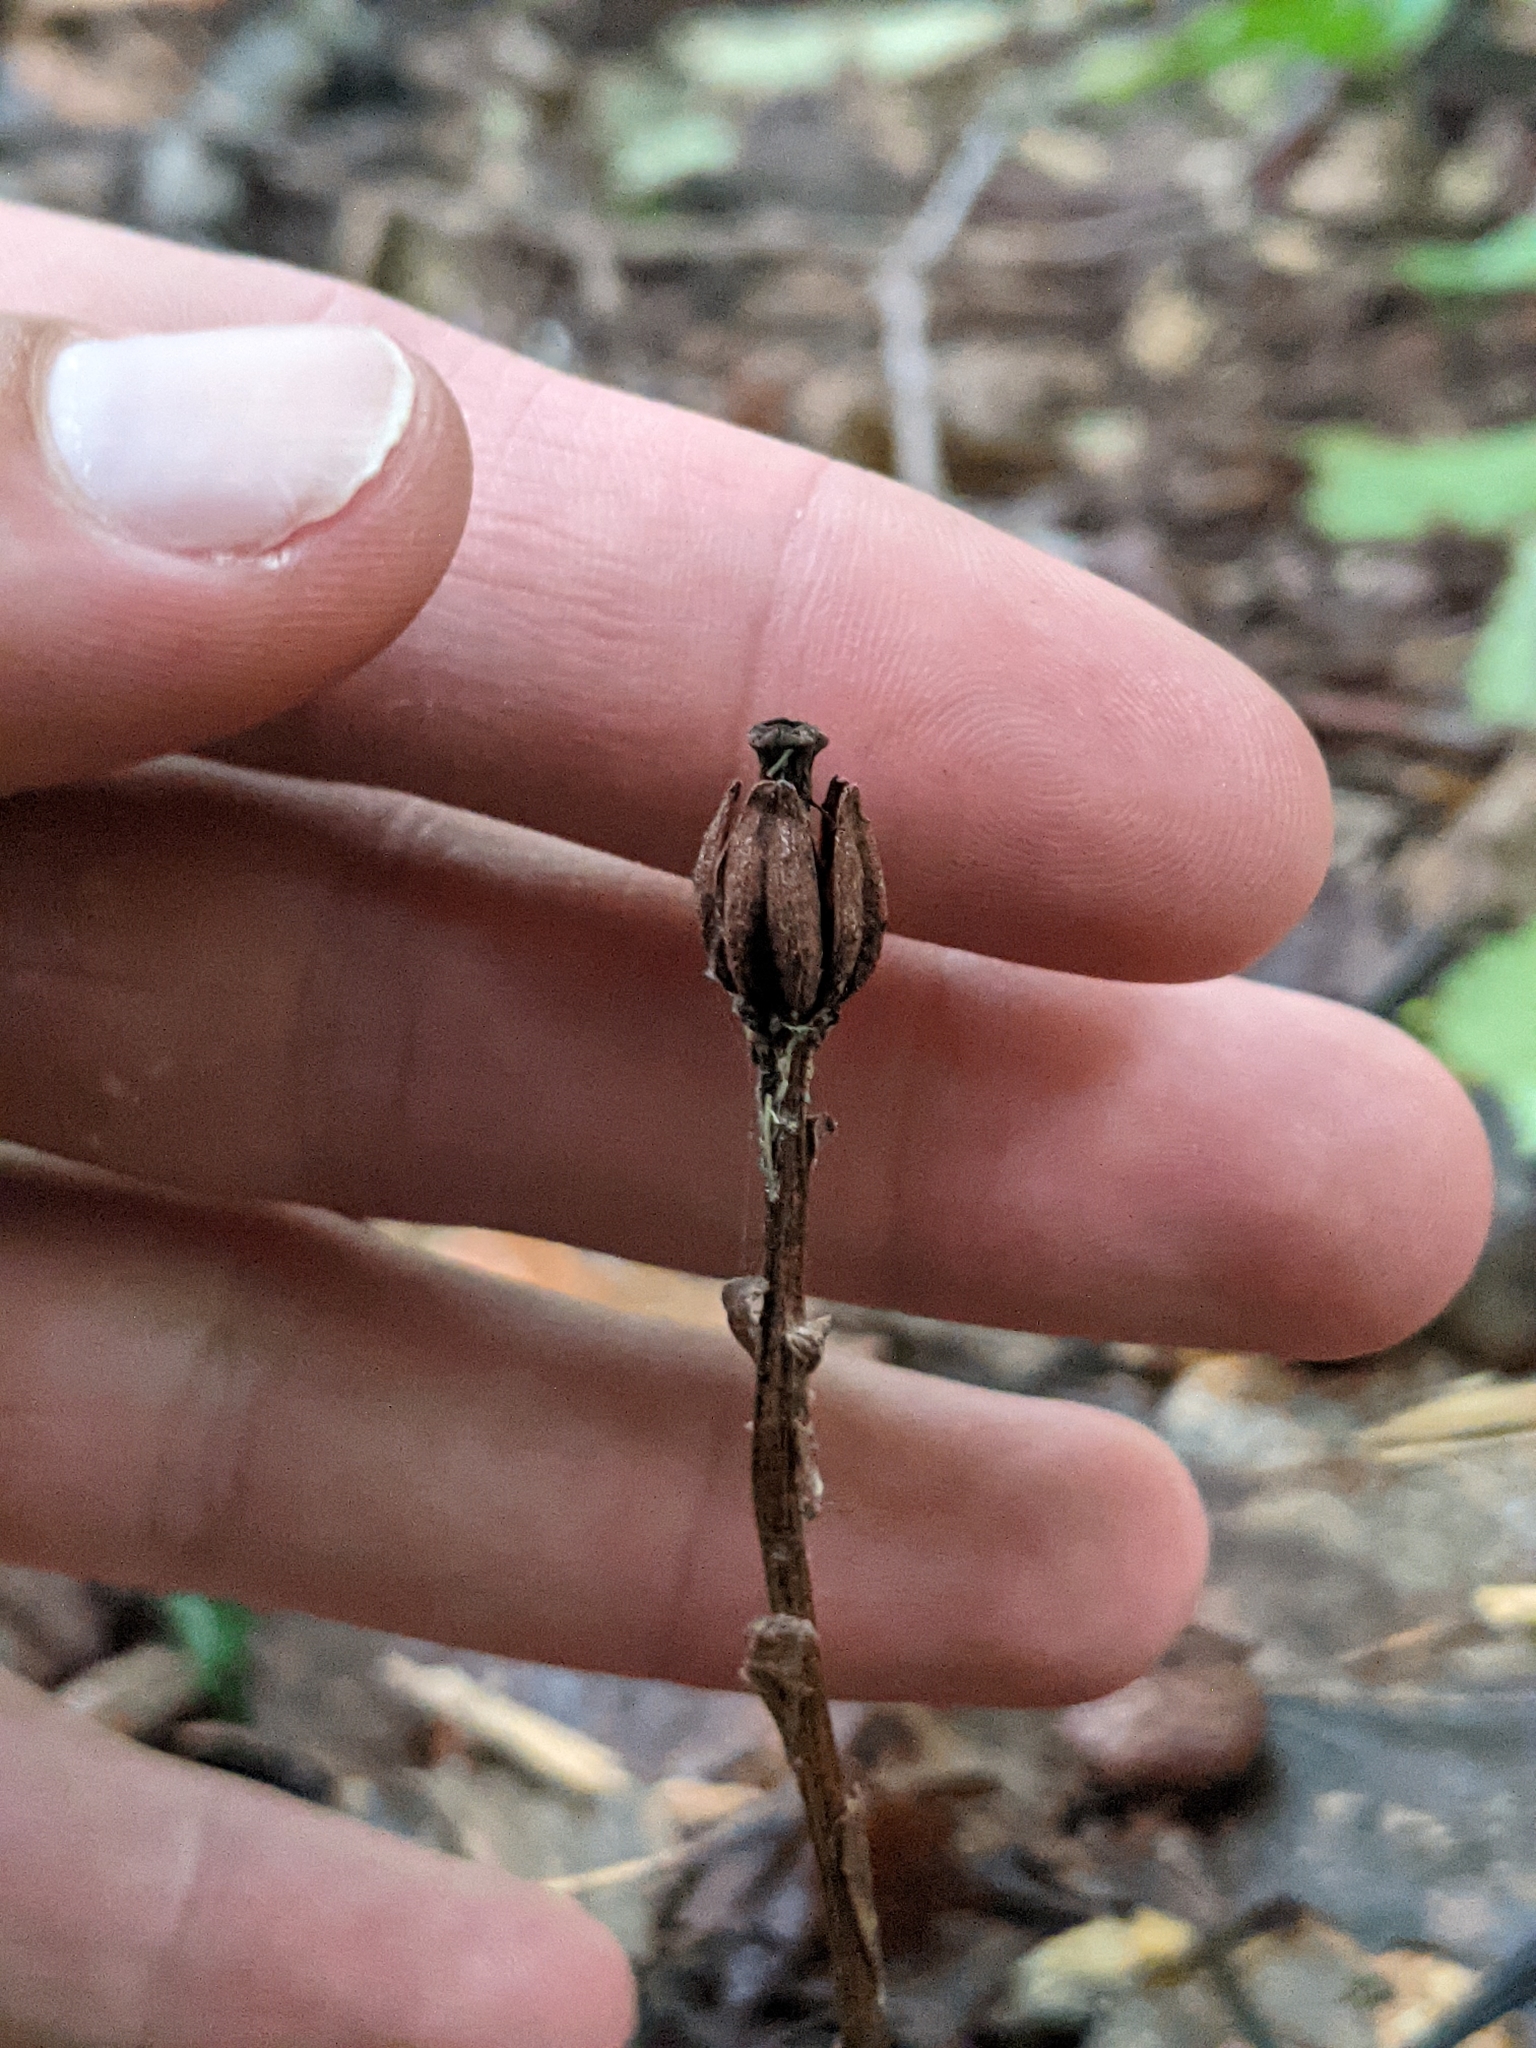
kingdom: Plantae
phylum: Tracheophyta
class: Magnoliopsida
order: Ericales
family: Ericaceae
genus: Monotropa
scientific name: Monotropa uniflora
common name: Convulsion root
